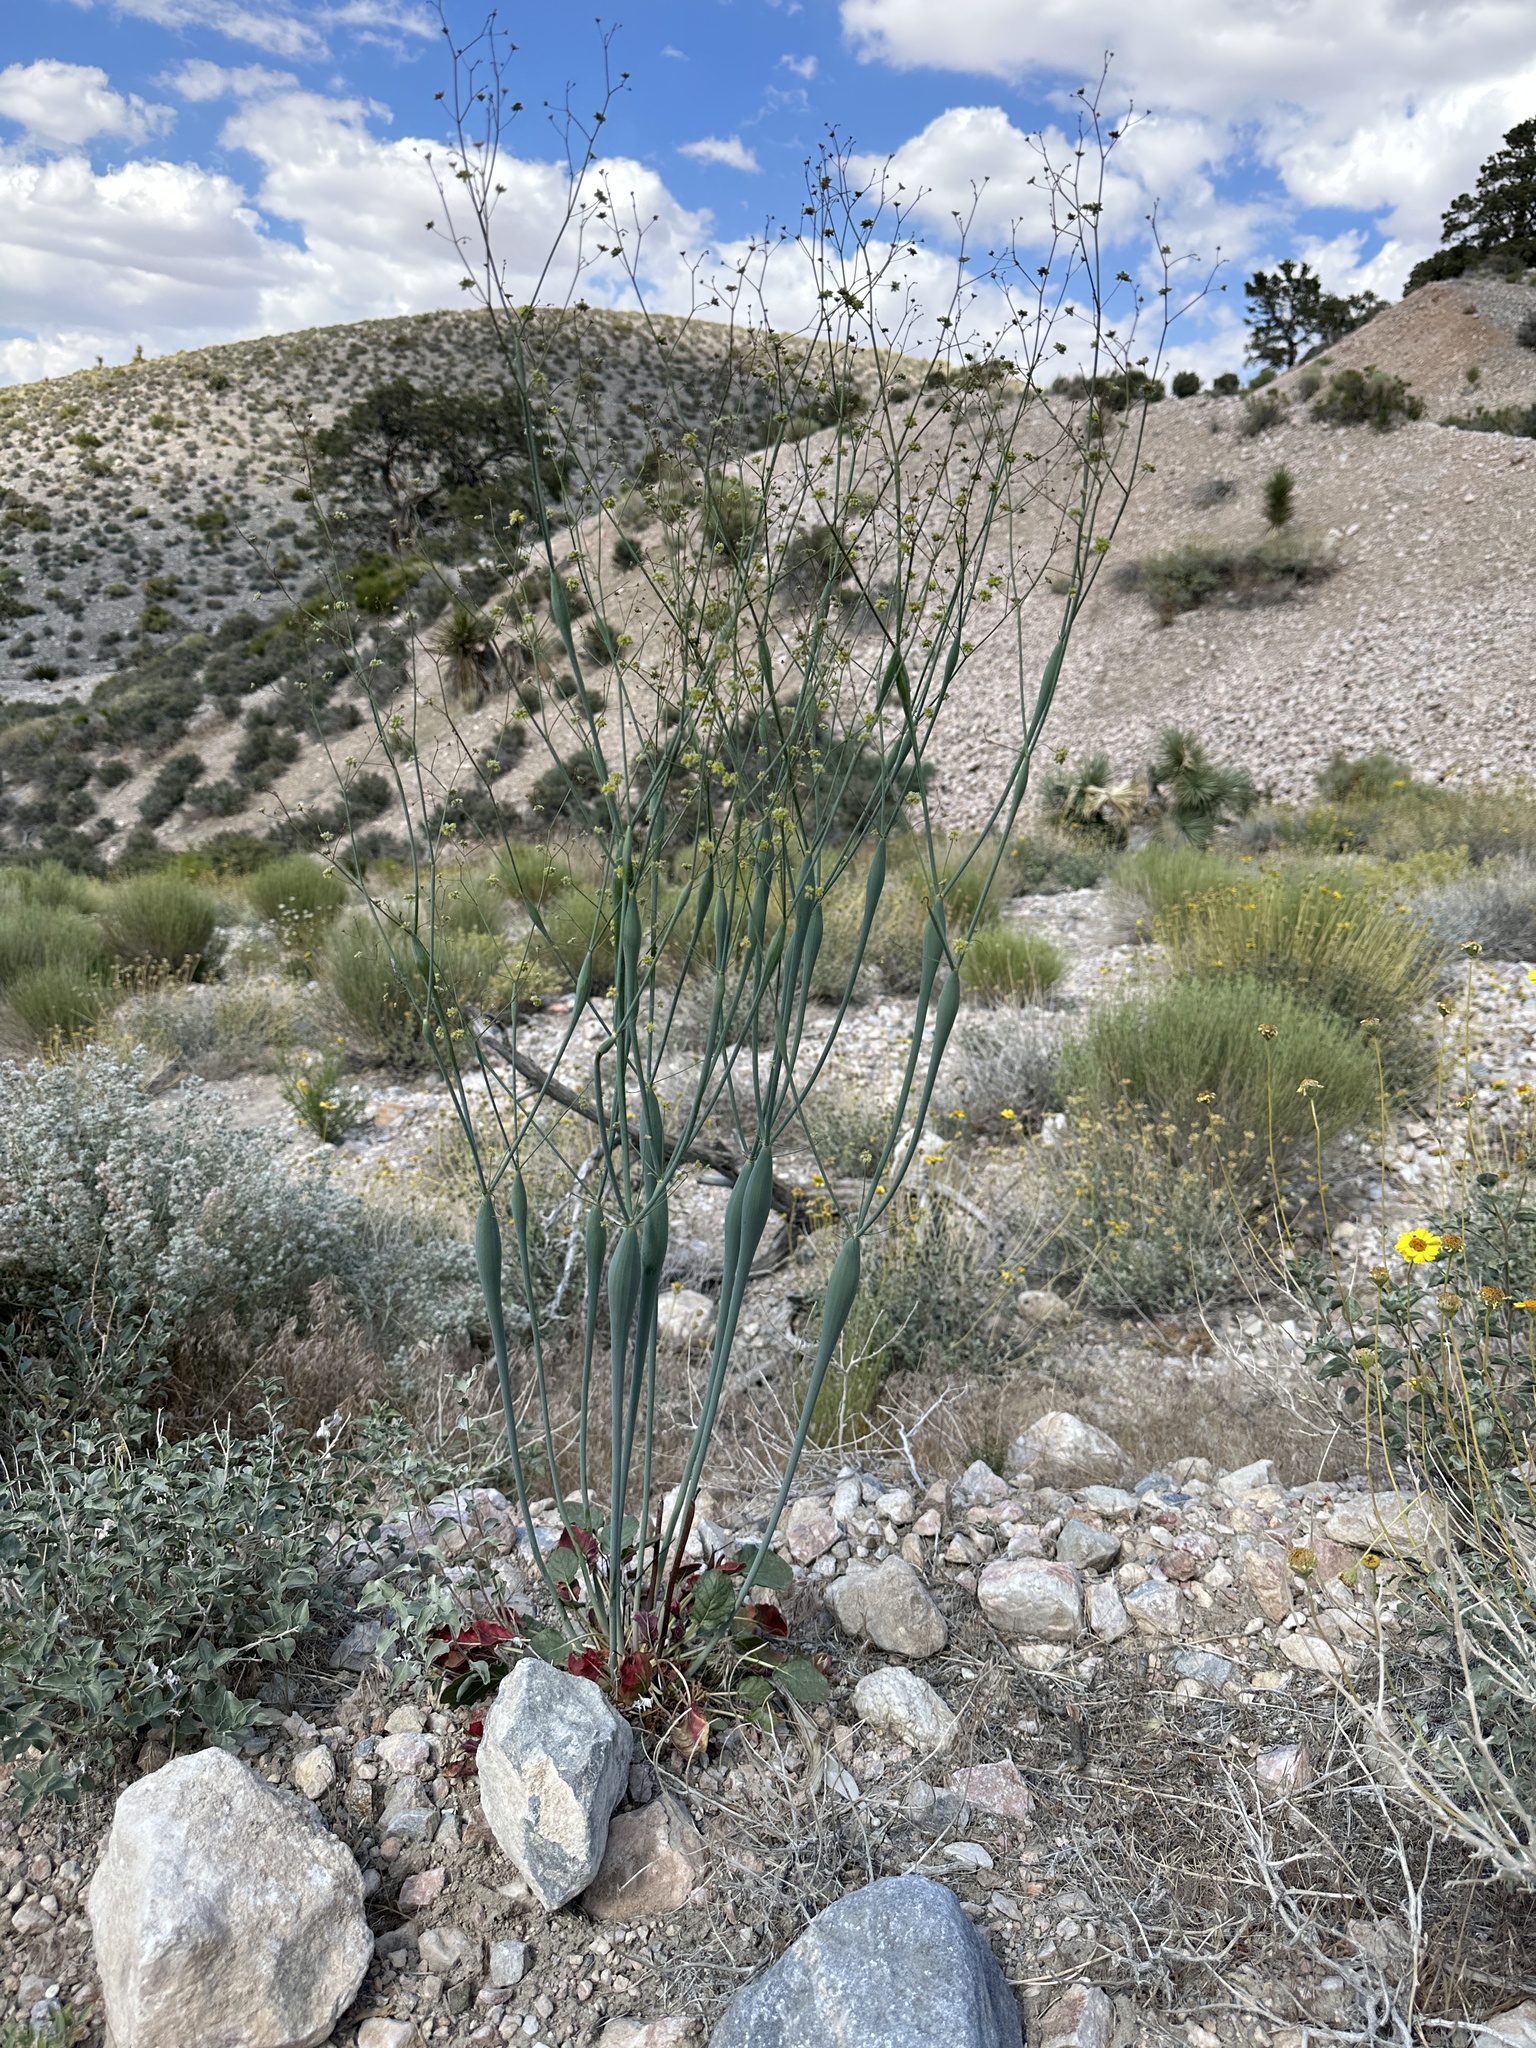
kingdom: Plantae
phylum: Tracheophyta
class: Magnoliopsida
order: Caryophyllales
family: Polygonaceae
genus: Eriogonum
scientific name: Eriogonum inflatum
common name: Desert trumpet
